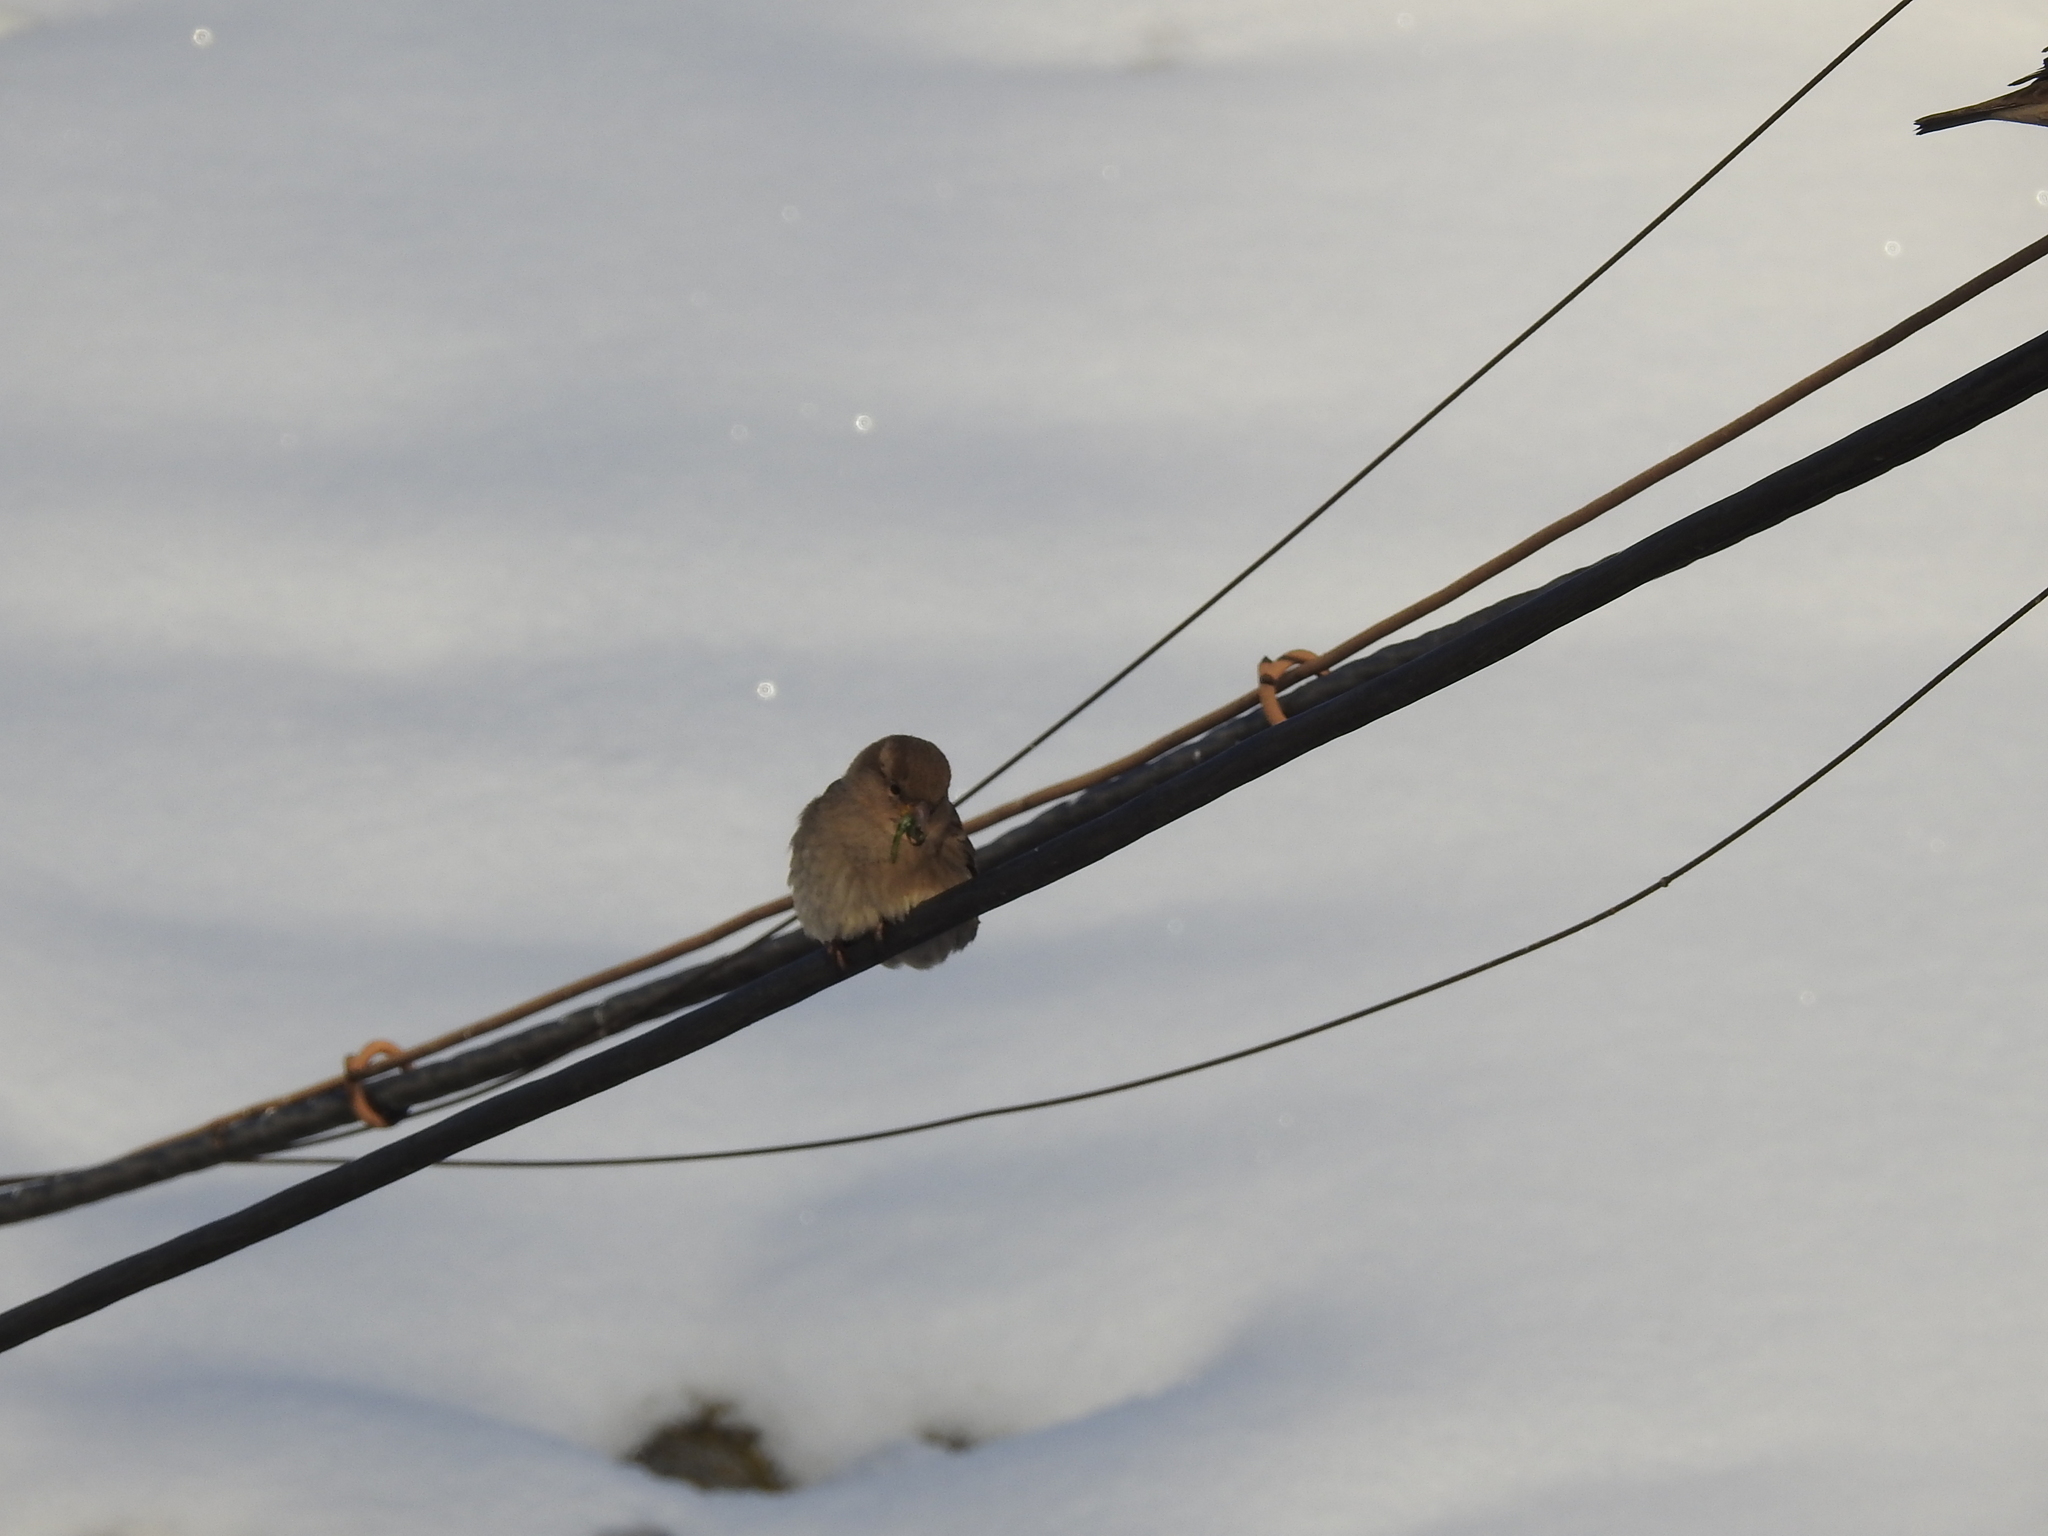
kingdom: Animalia
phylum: Chordata
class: Aves
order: Passeriformes
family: Passeridae
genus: Passer
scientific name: Passer domesticus
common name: House sparrow
